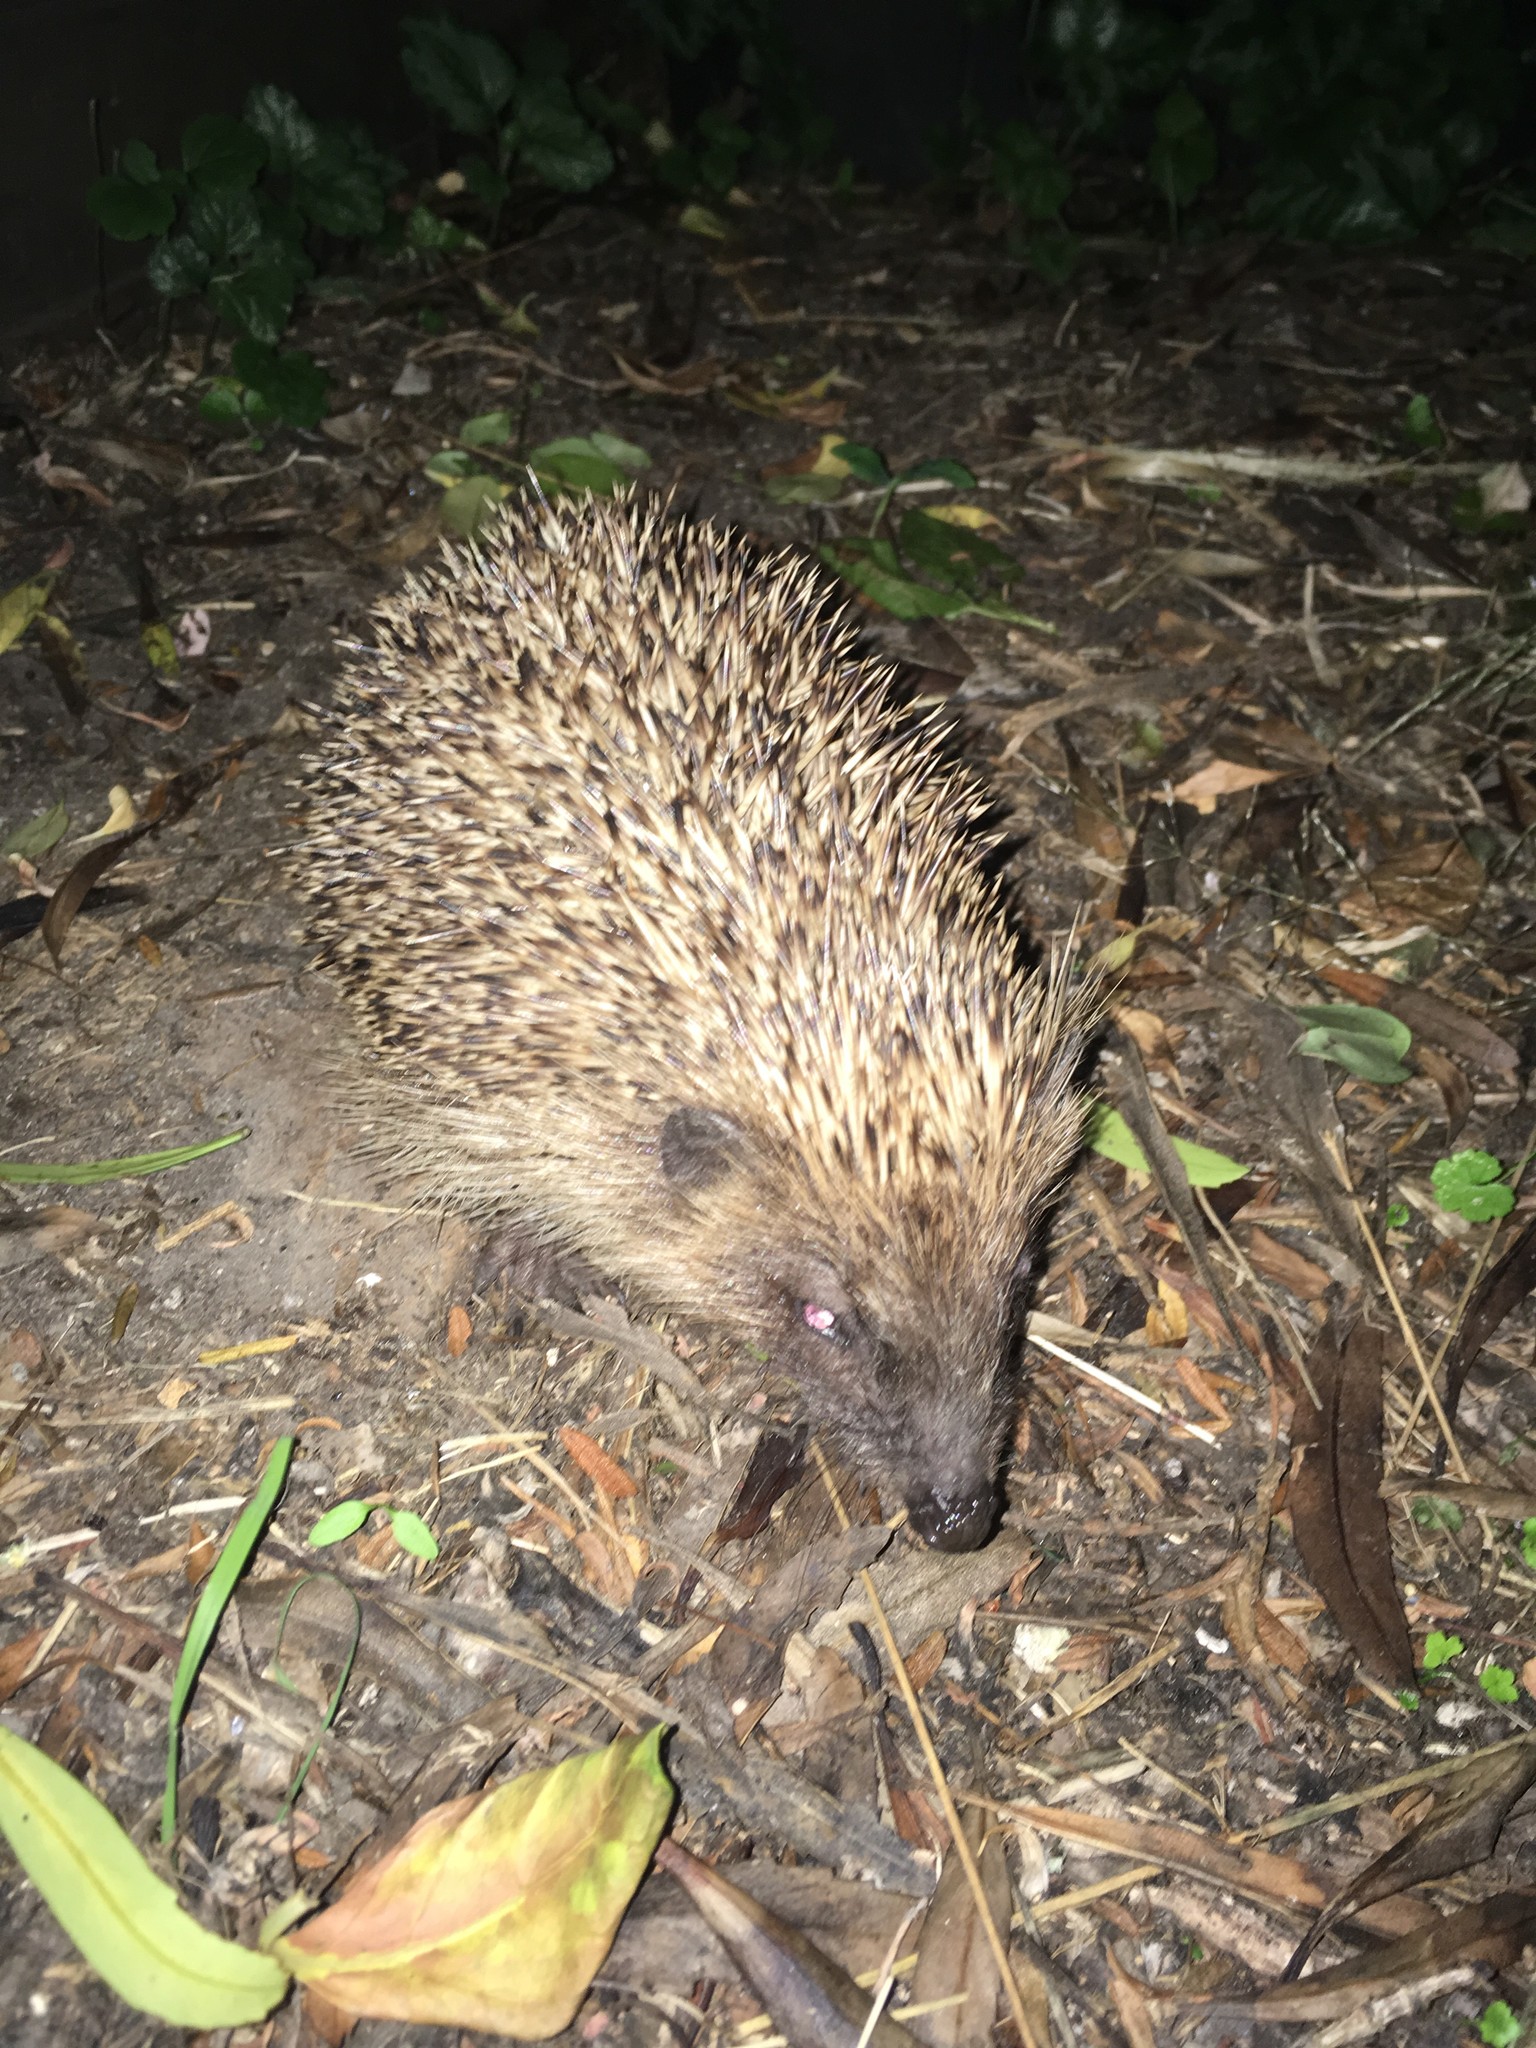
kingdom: Animalia
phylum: Chordata
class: Mammalia
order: Erinaceomorpha
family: Erinaceidae
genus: Erinaceus
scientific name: Erinaceus europaeus
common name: West european hedgehog
